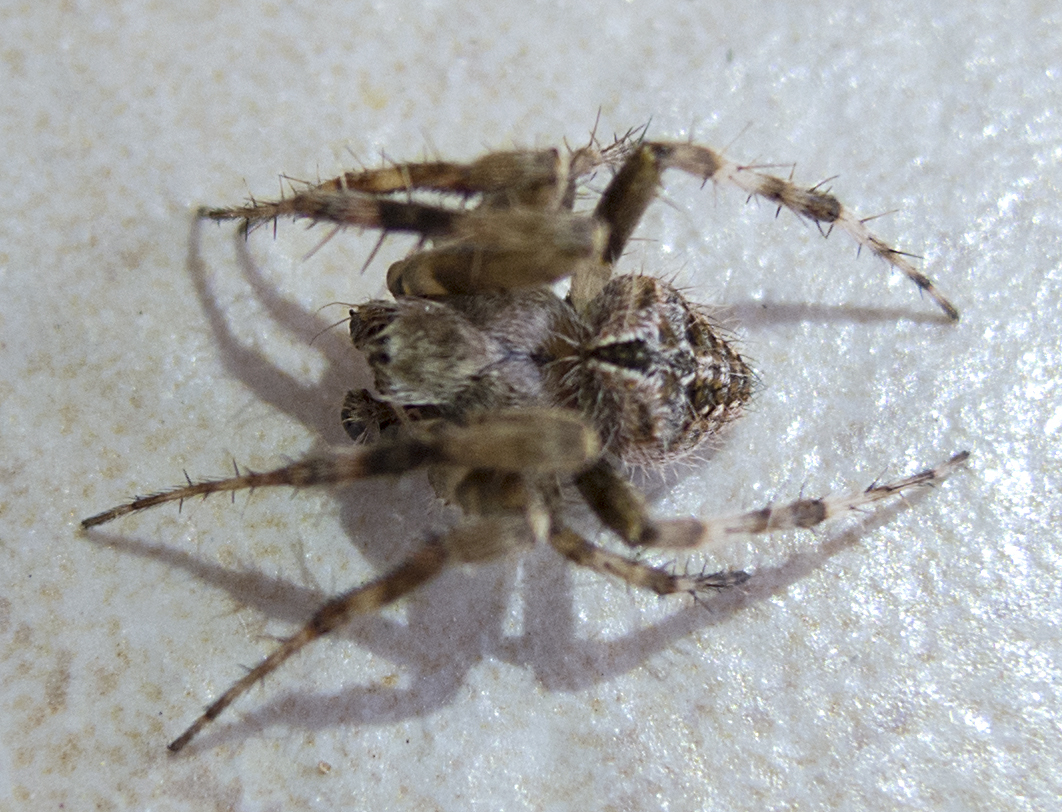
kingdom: Animalia
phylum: Arthropoda
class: Arachnida
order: Araneae
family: Araneidae
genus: Agalenatea
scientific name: Agalenatea redii
